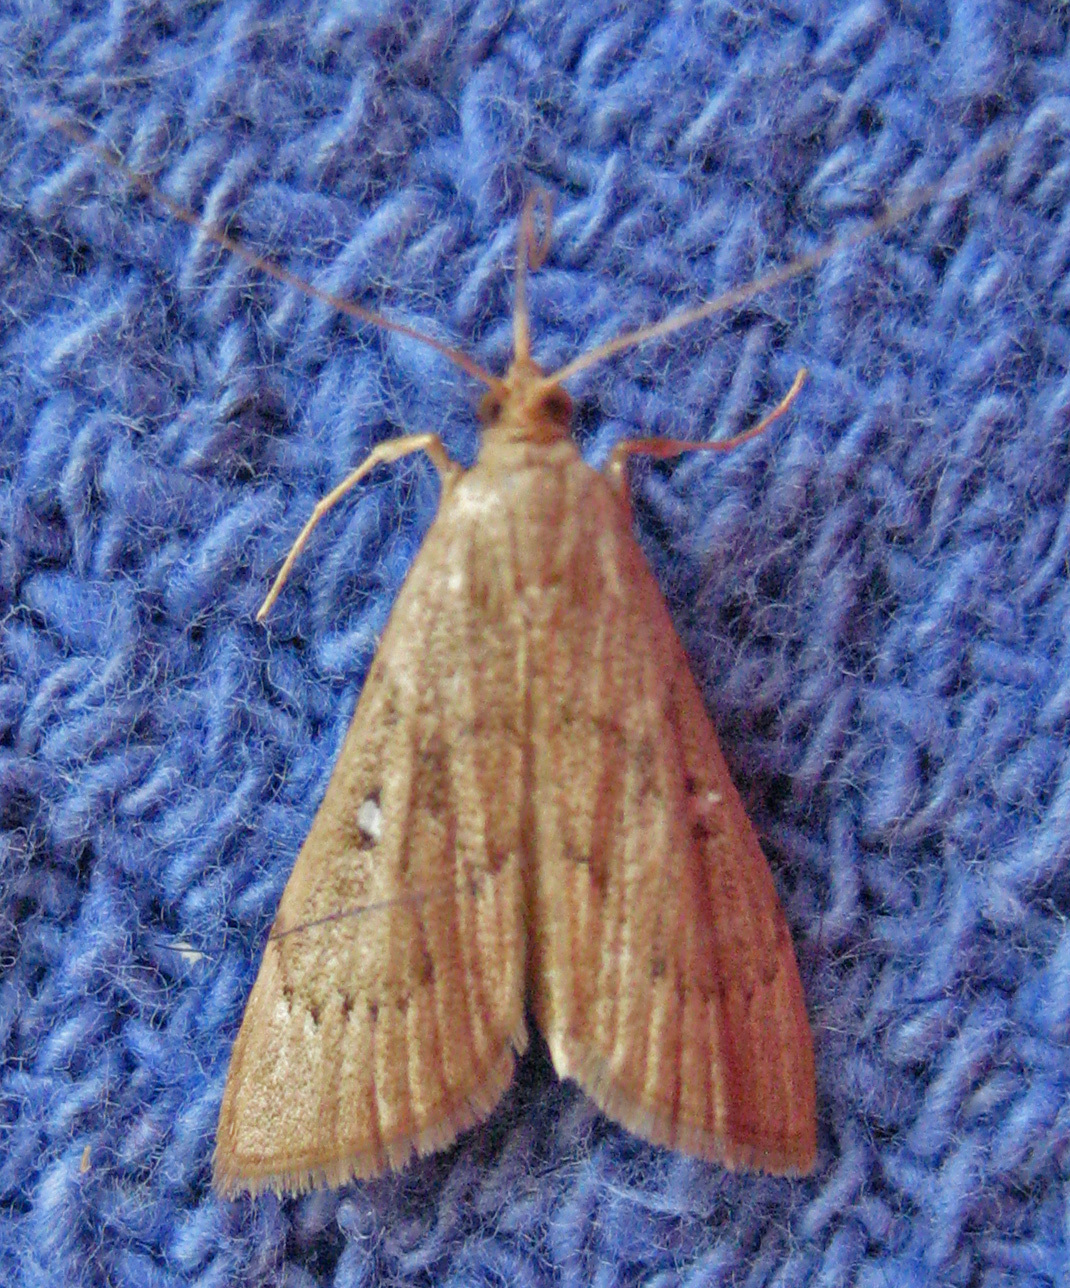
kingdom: Animalia
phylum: Arthropoda
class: Insecta
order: Lepidoptera
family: Crambidae
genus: Udea
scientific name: Udea rubigalis
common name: Celery leaftier moth
